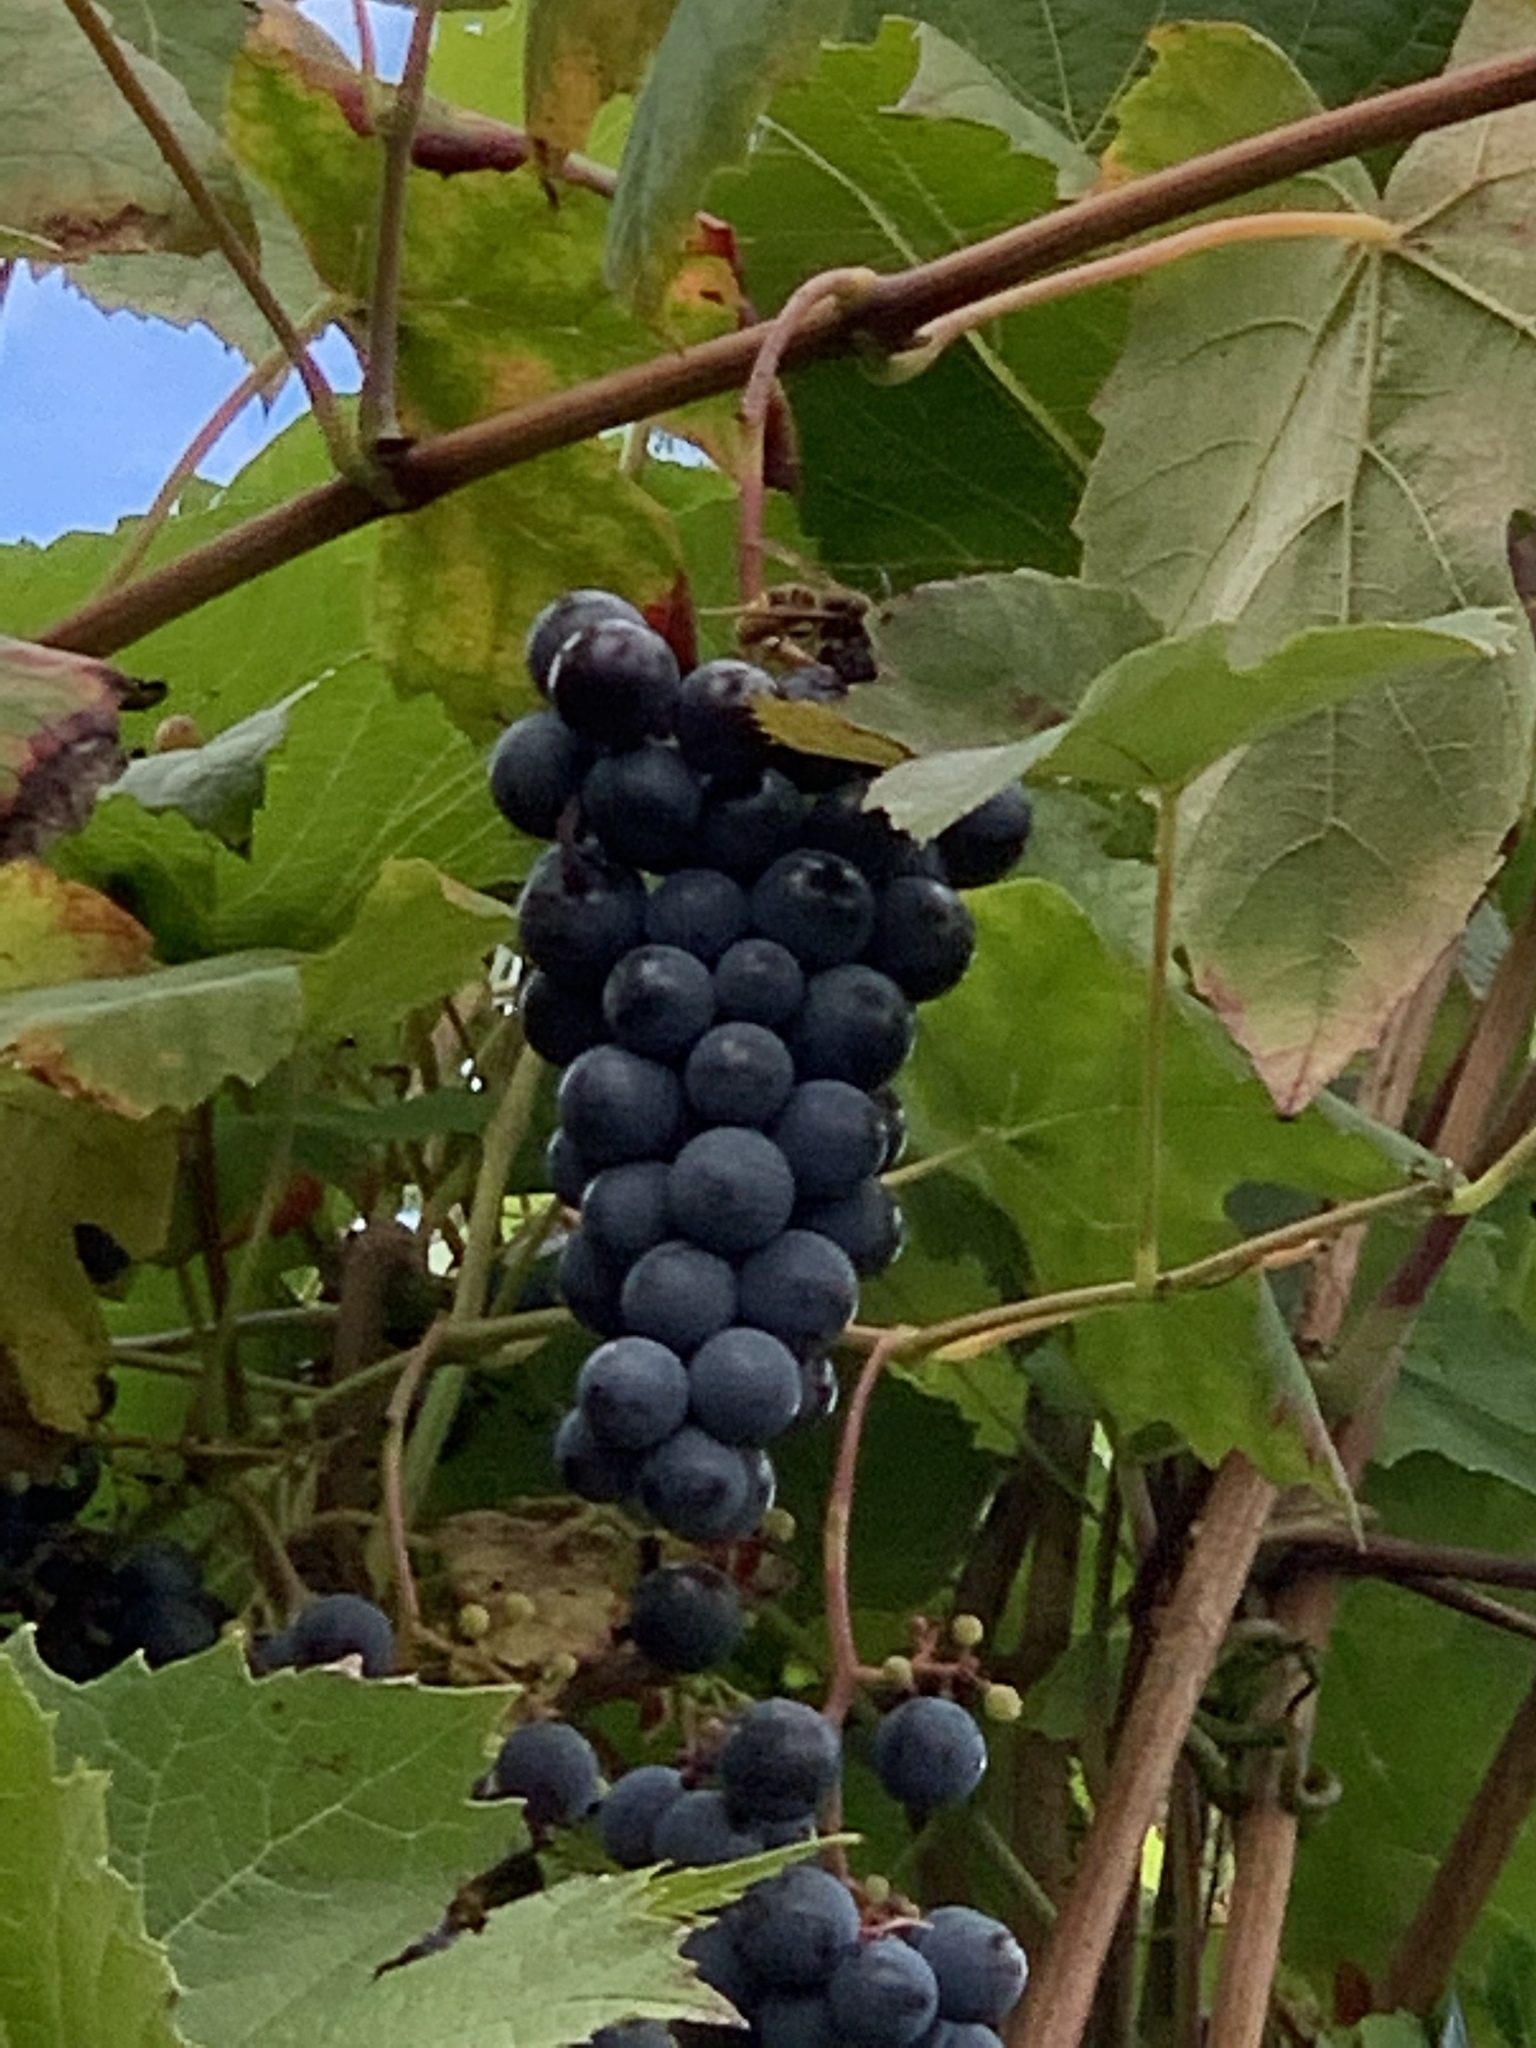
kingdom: Animalia
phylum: Arthropoda
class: Insecta
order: Hymenoptera
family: Vespidae
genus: Vespa
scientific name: Vespa velutina
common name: Asian hornet
